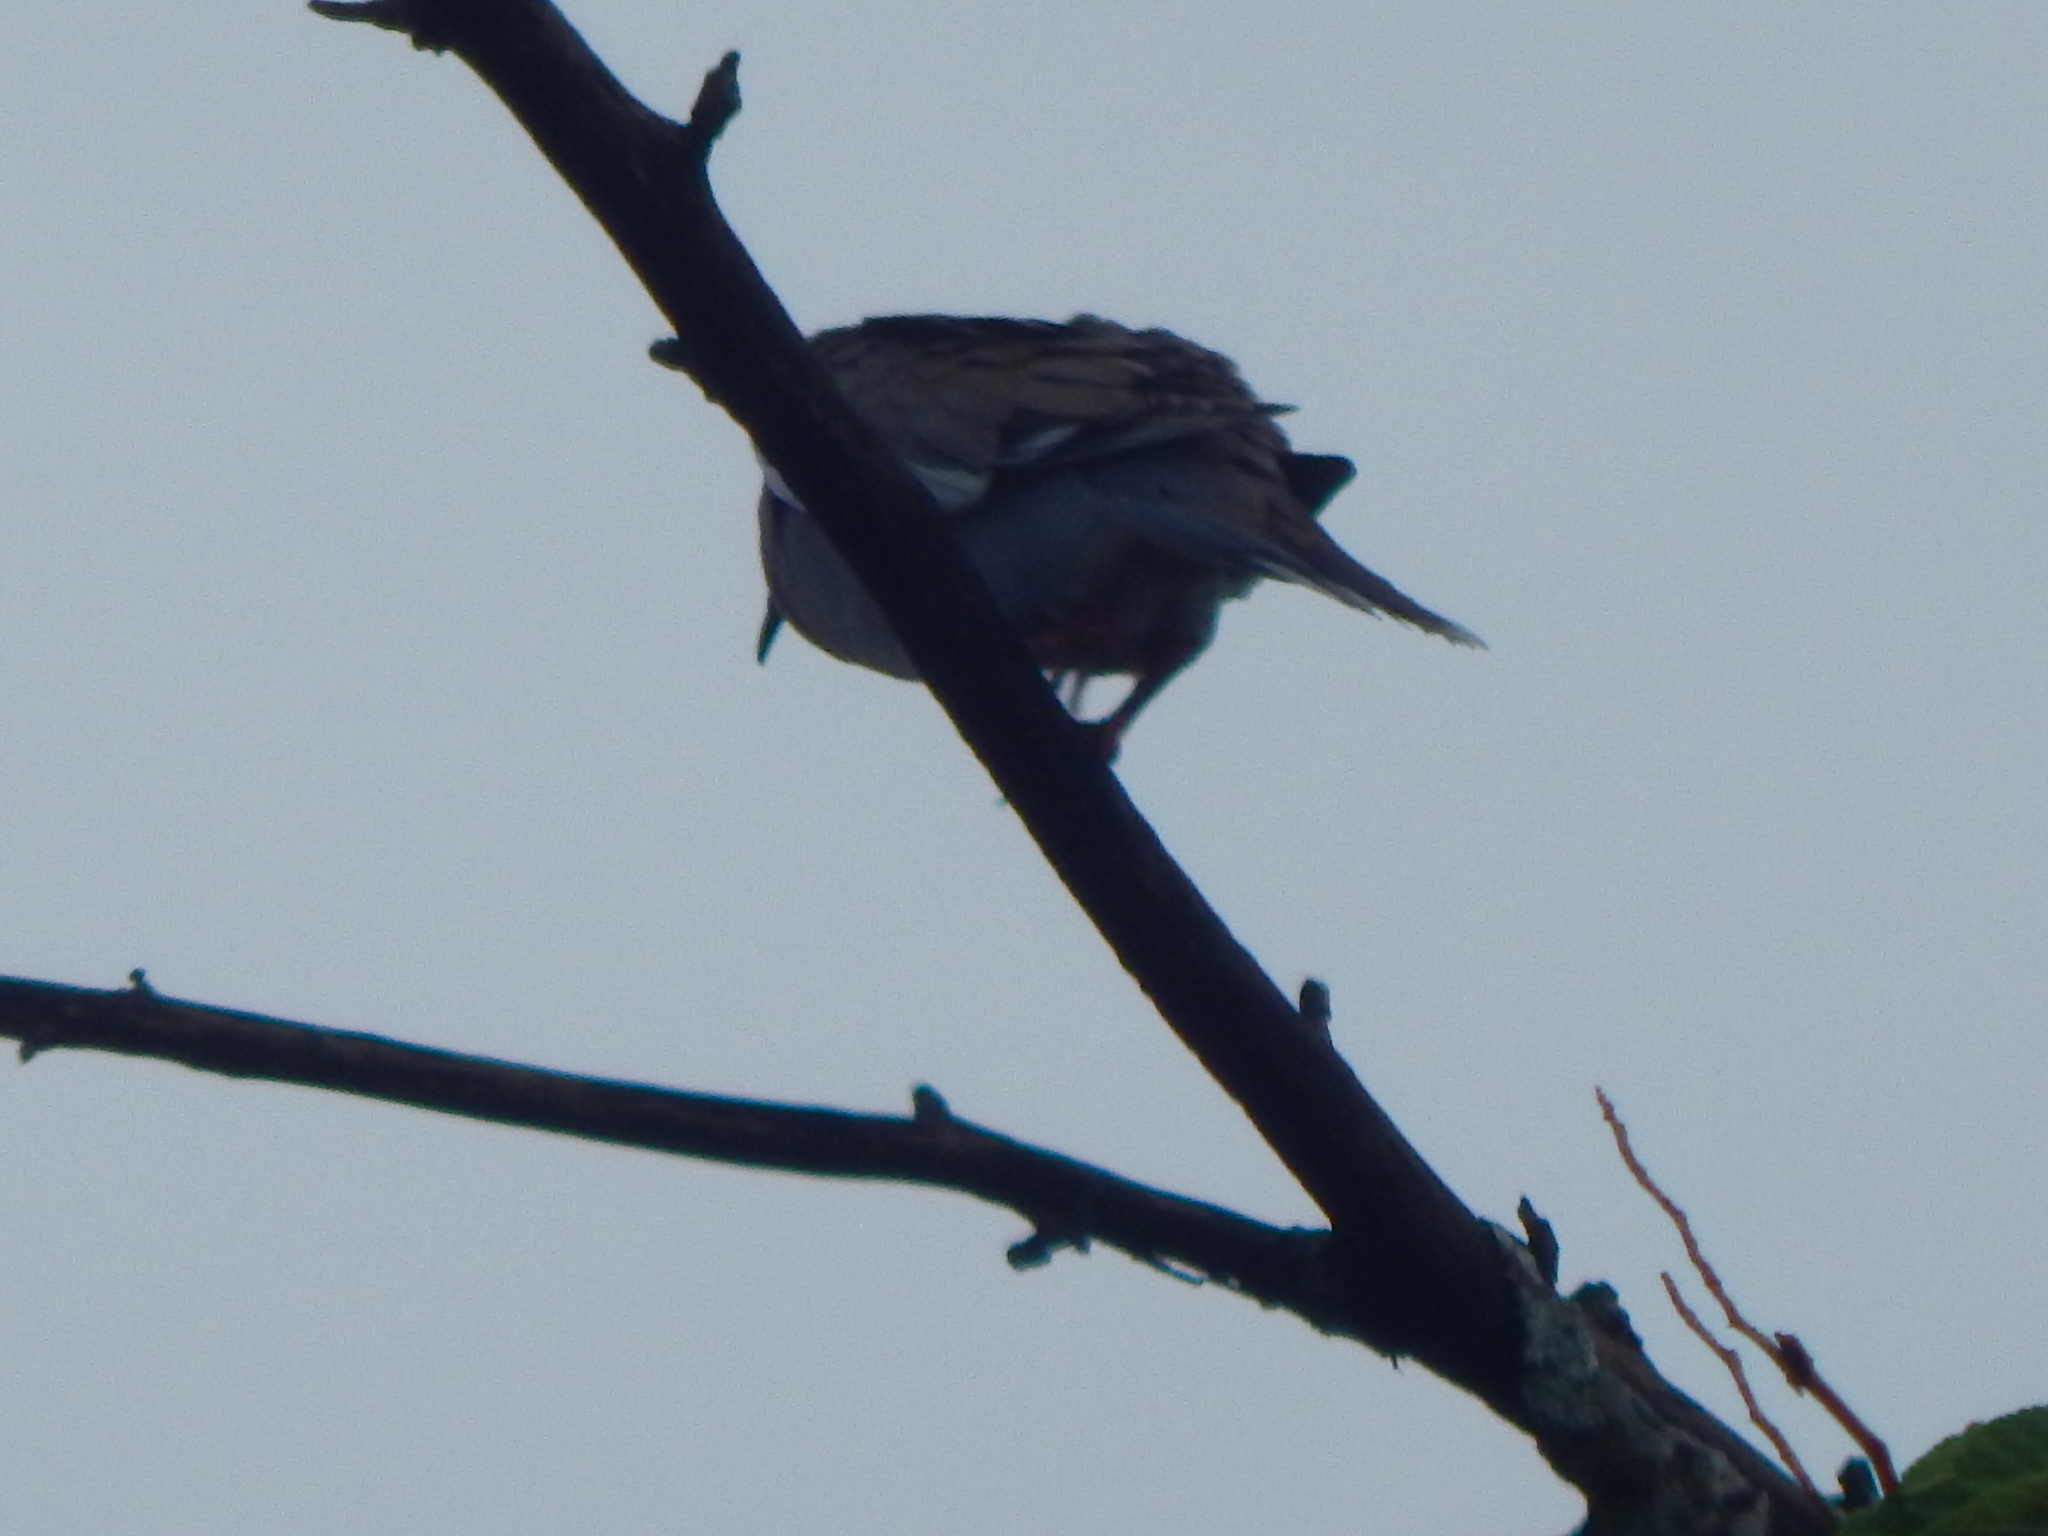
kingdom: Animalia
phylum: Chordata
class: Aves
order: Columbiformes
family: Columbidae
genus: Zenaida
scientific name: Zenaida asiatica
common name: White-winged dove
